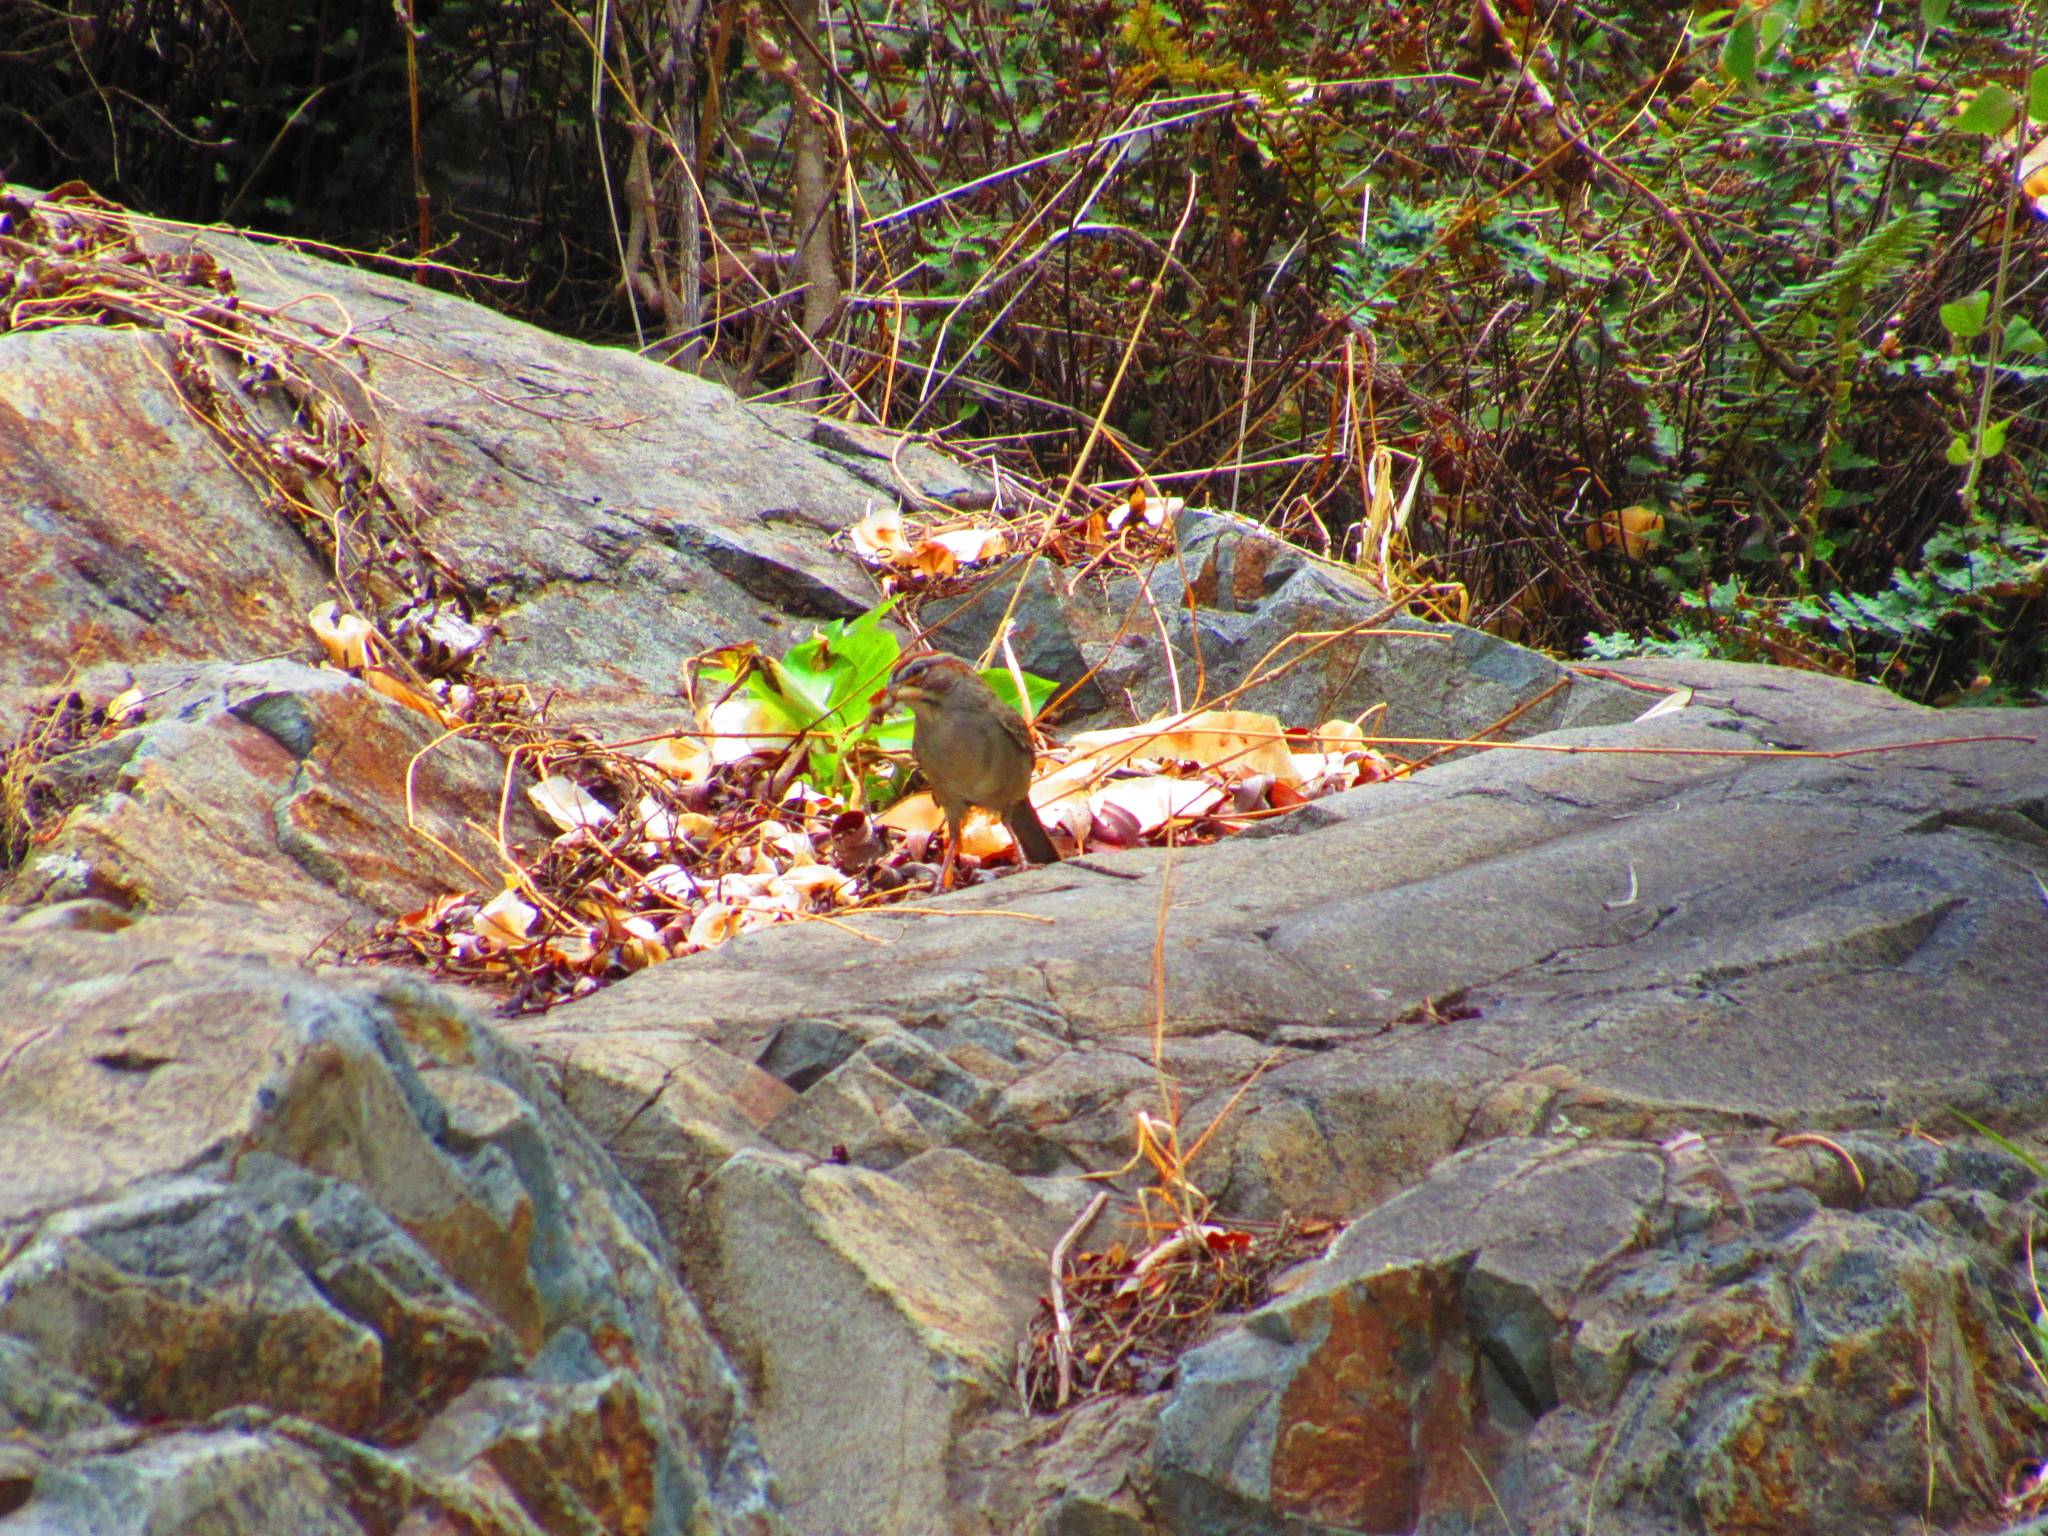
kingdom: Animalia
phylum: Chordata
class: Aves
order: Passeriformes
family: Passerellidae
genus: Aimophila
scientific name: Aimophila ruficeps
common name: Rufous-crowned sparrow
